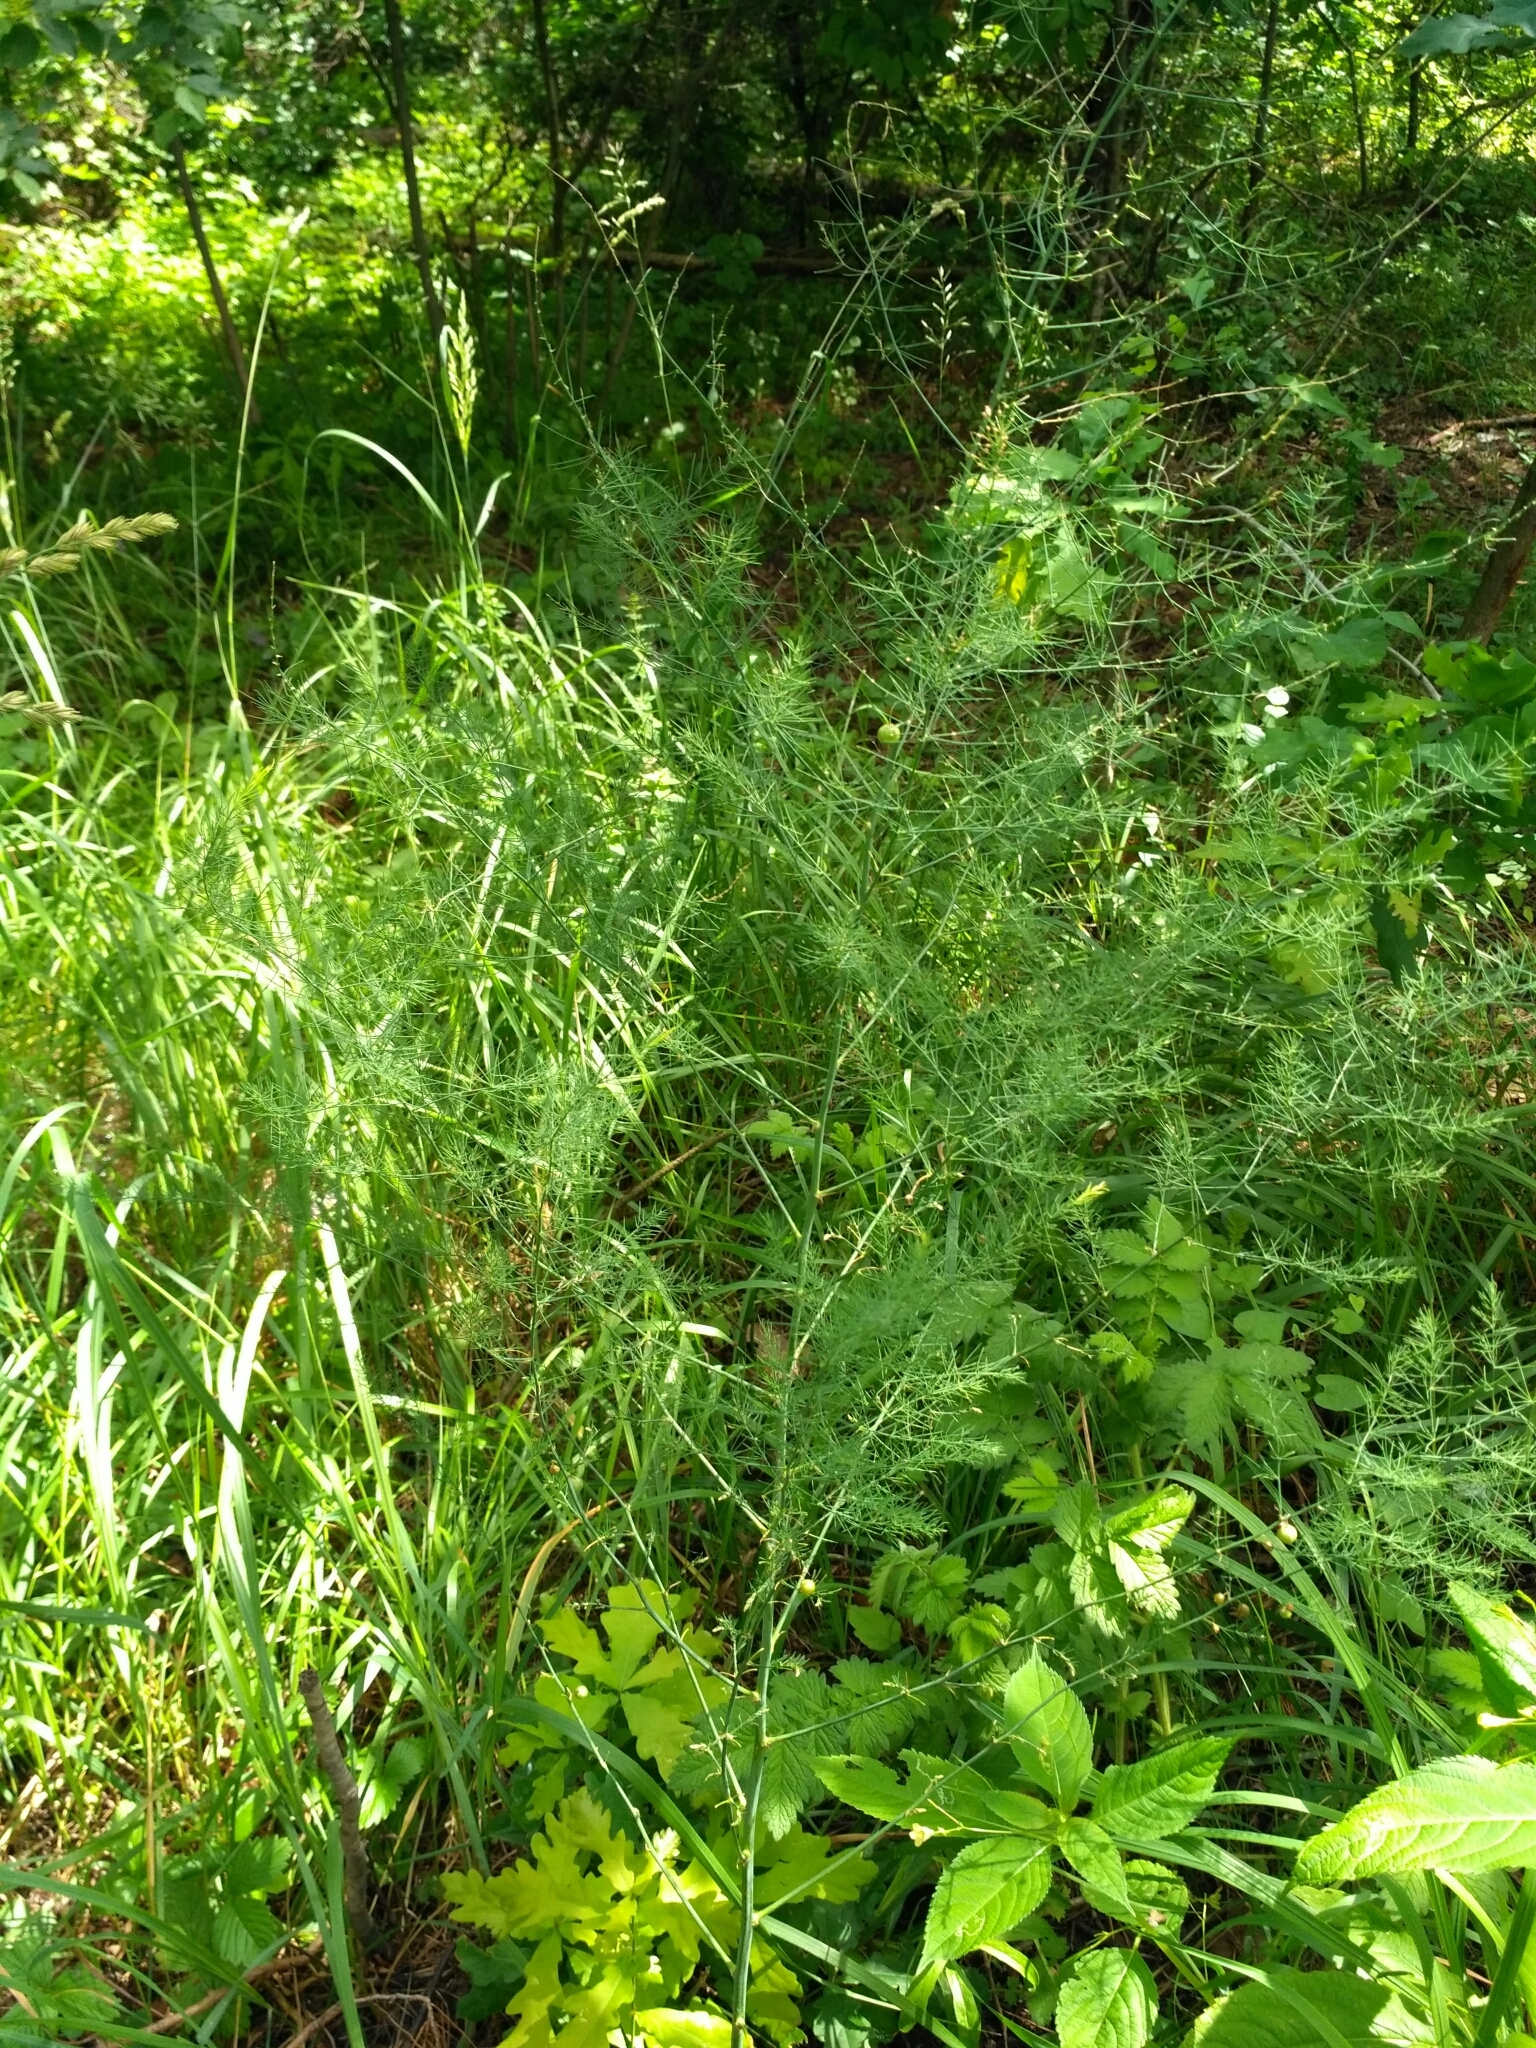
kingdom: Plantae
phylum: Tracheophyta
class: Liliopsida
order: Asparagales
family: Asparagaceae
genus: Asparagus
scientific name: Asparagus officinalis
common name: Garden asparagus
